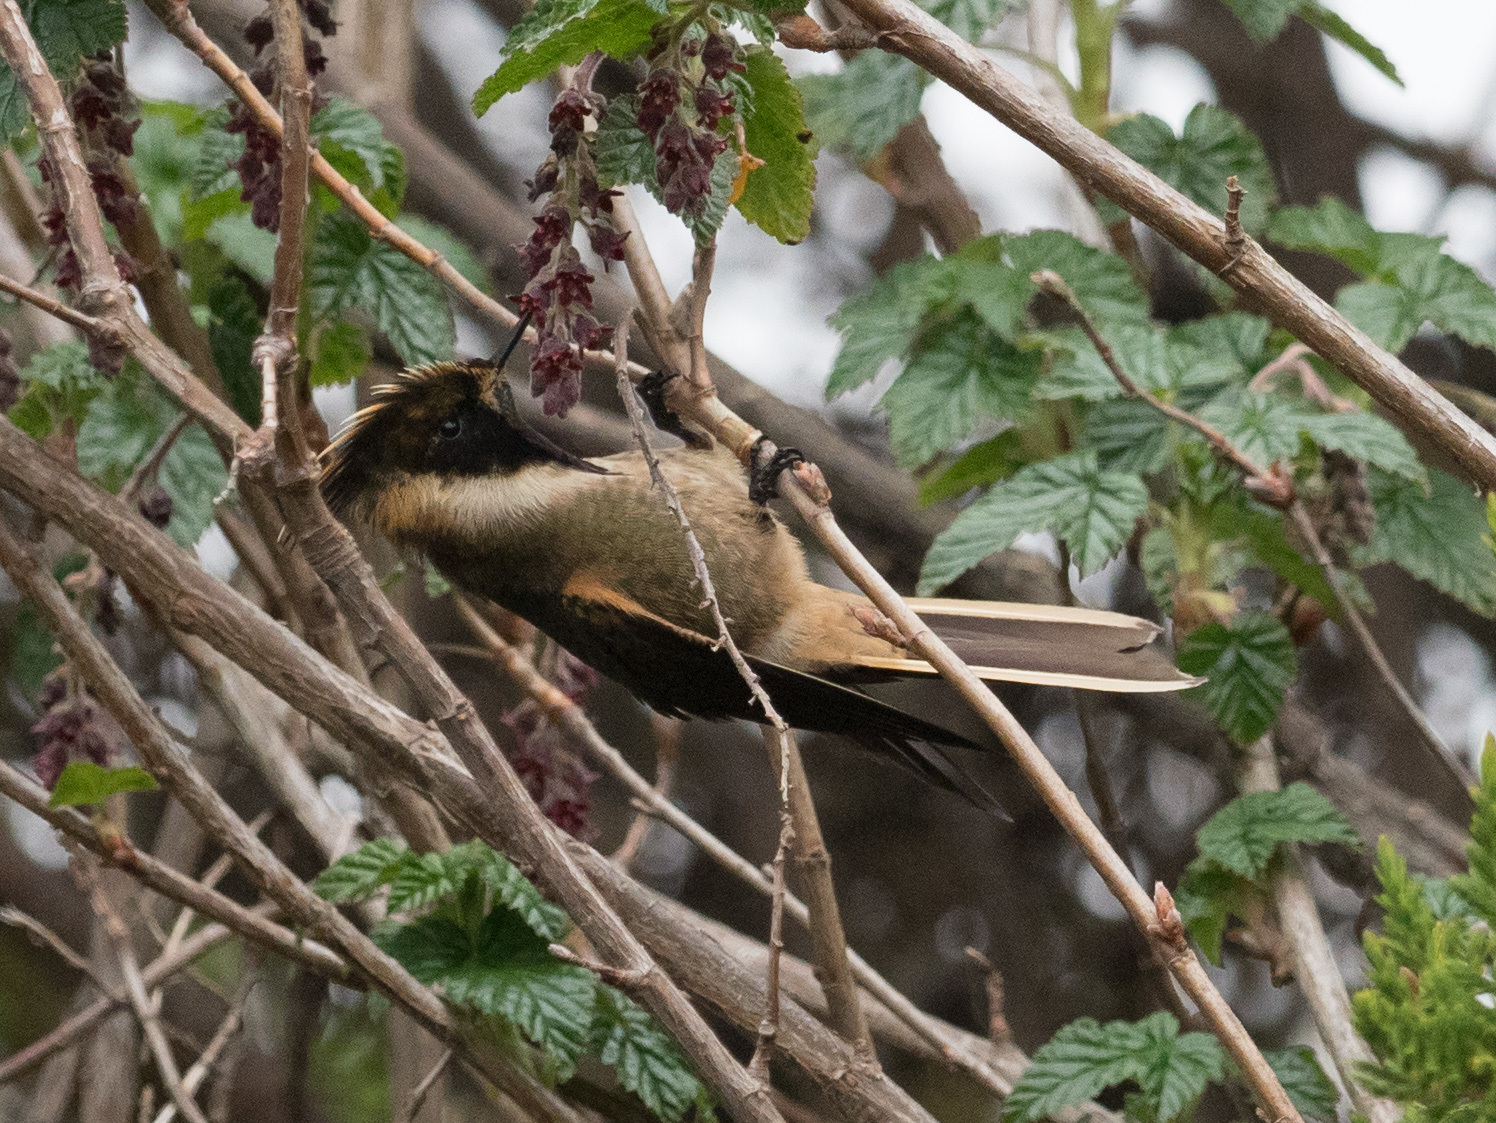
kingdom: Animalia
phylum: Chordata
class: Aves
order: Apodiformes
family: Trochilidae
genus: Oxypogon
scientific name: Oxypogon stuebelii
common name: Buffy helmetcrest
